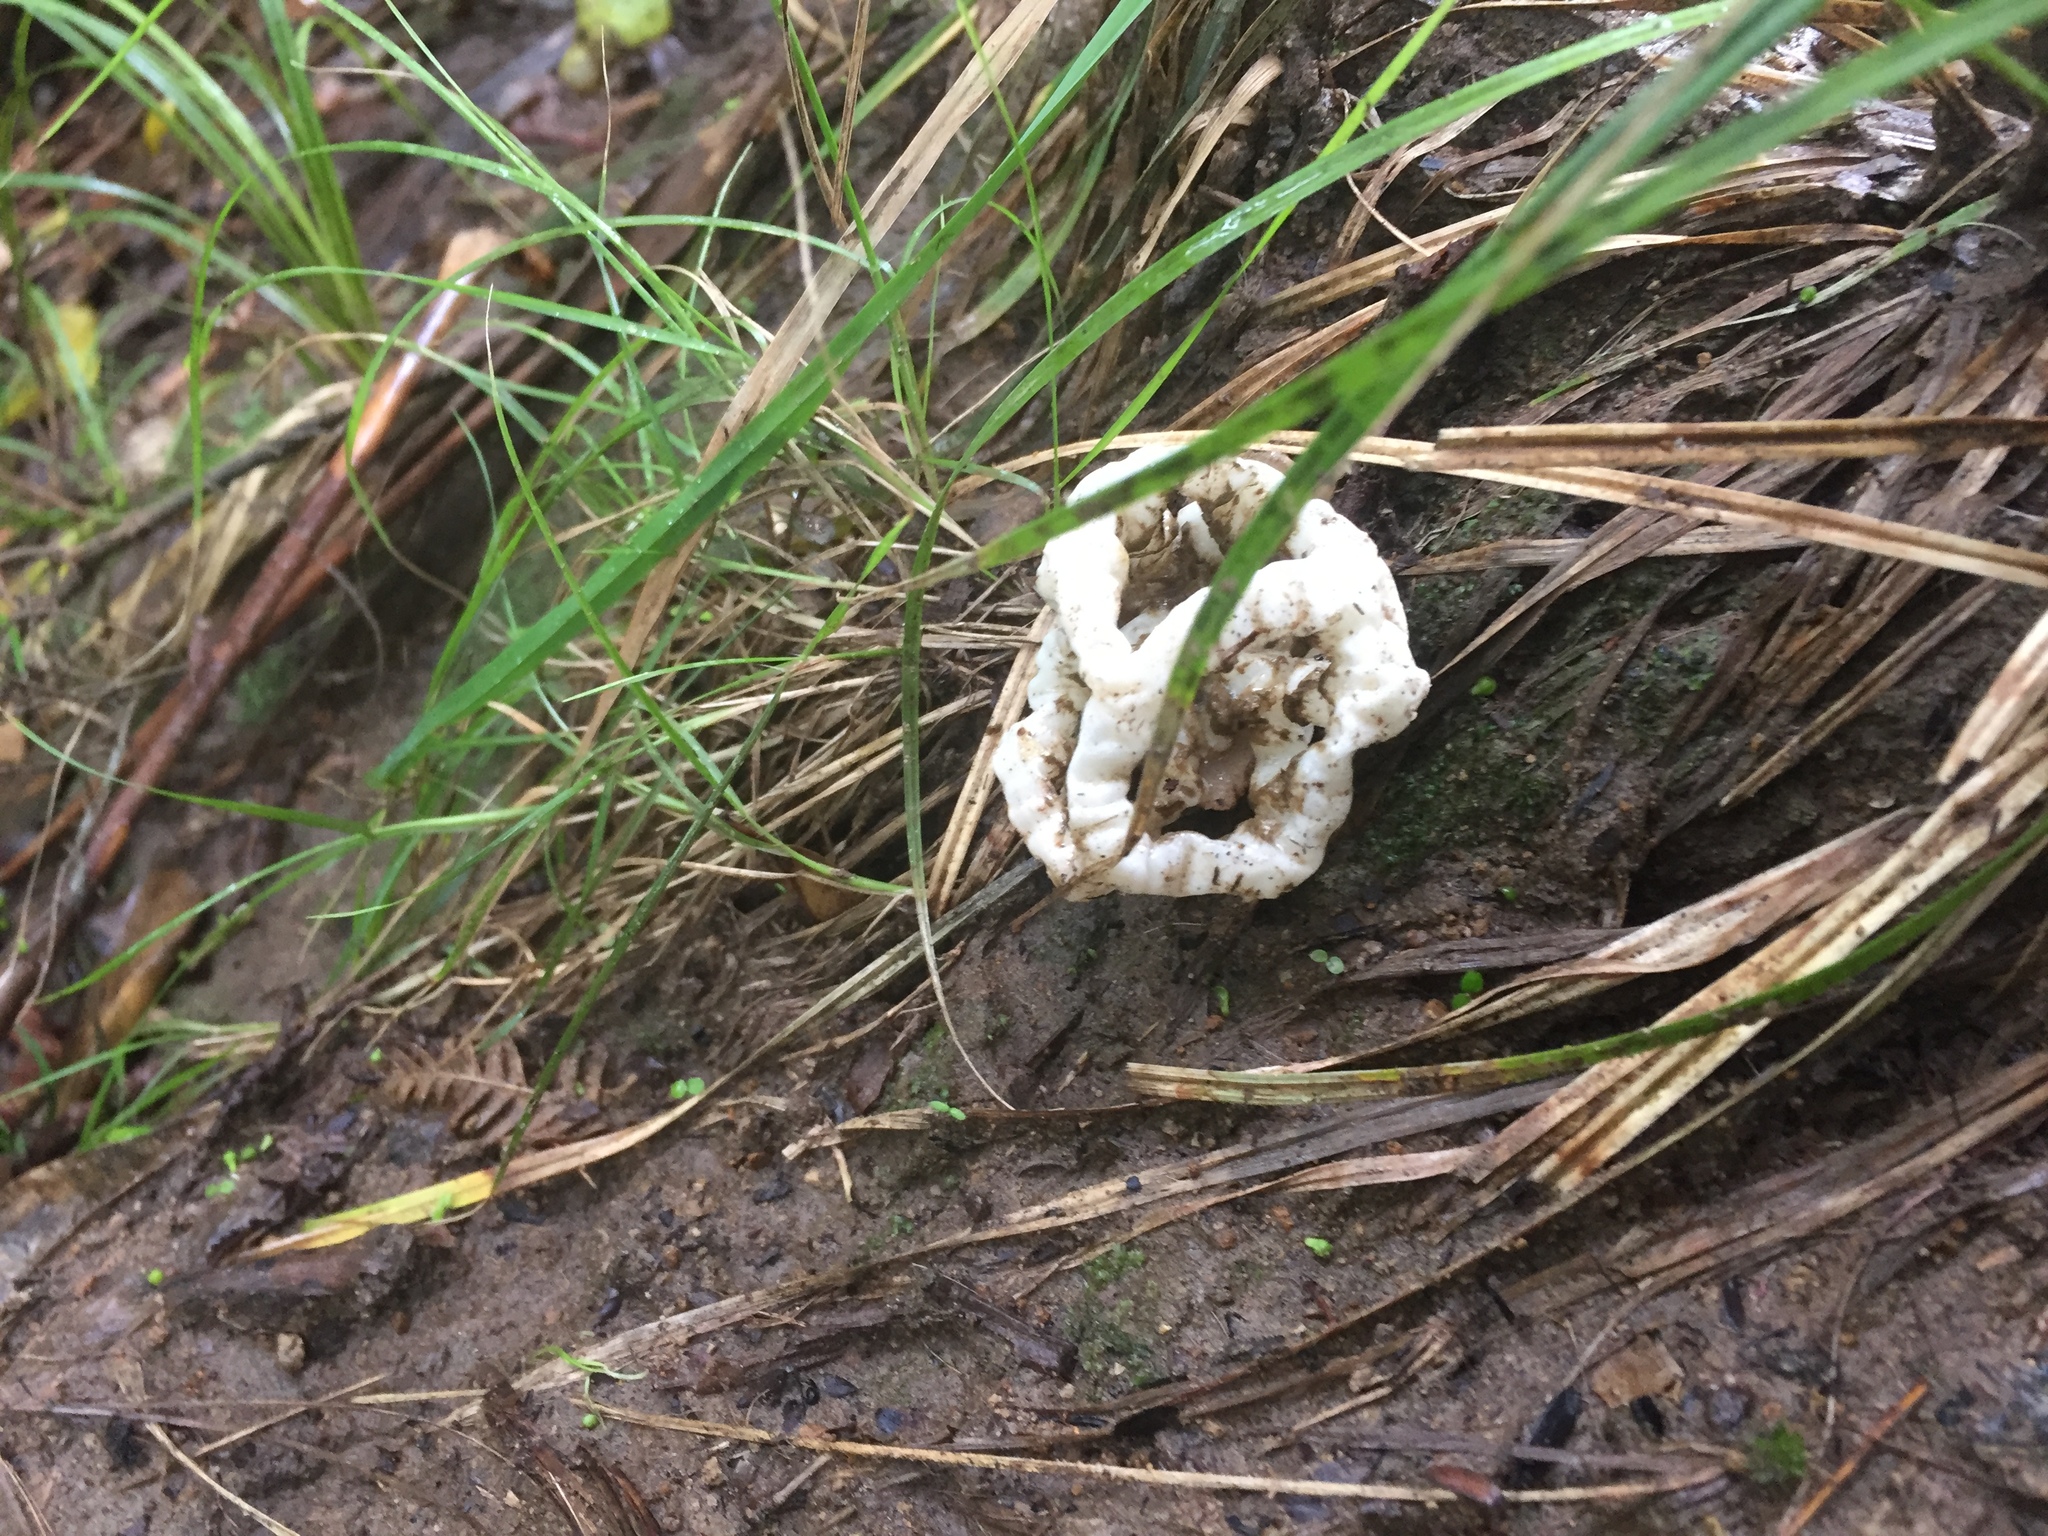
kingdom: Fungi
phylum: Basidiomycota
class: Agaricomycetes
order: Phallales
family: Phallaceae
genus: Ileodictyon
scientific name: Ileodictyon cibarium
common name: Basket fungus
